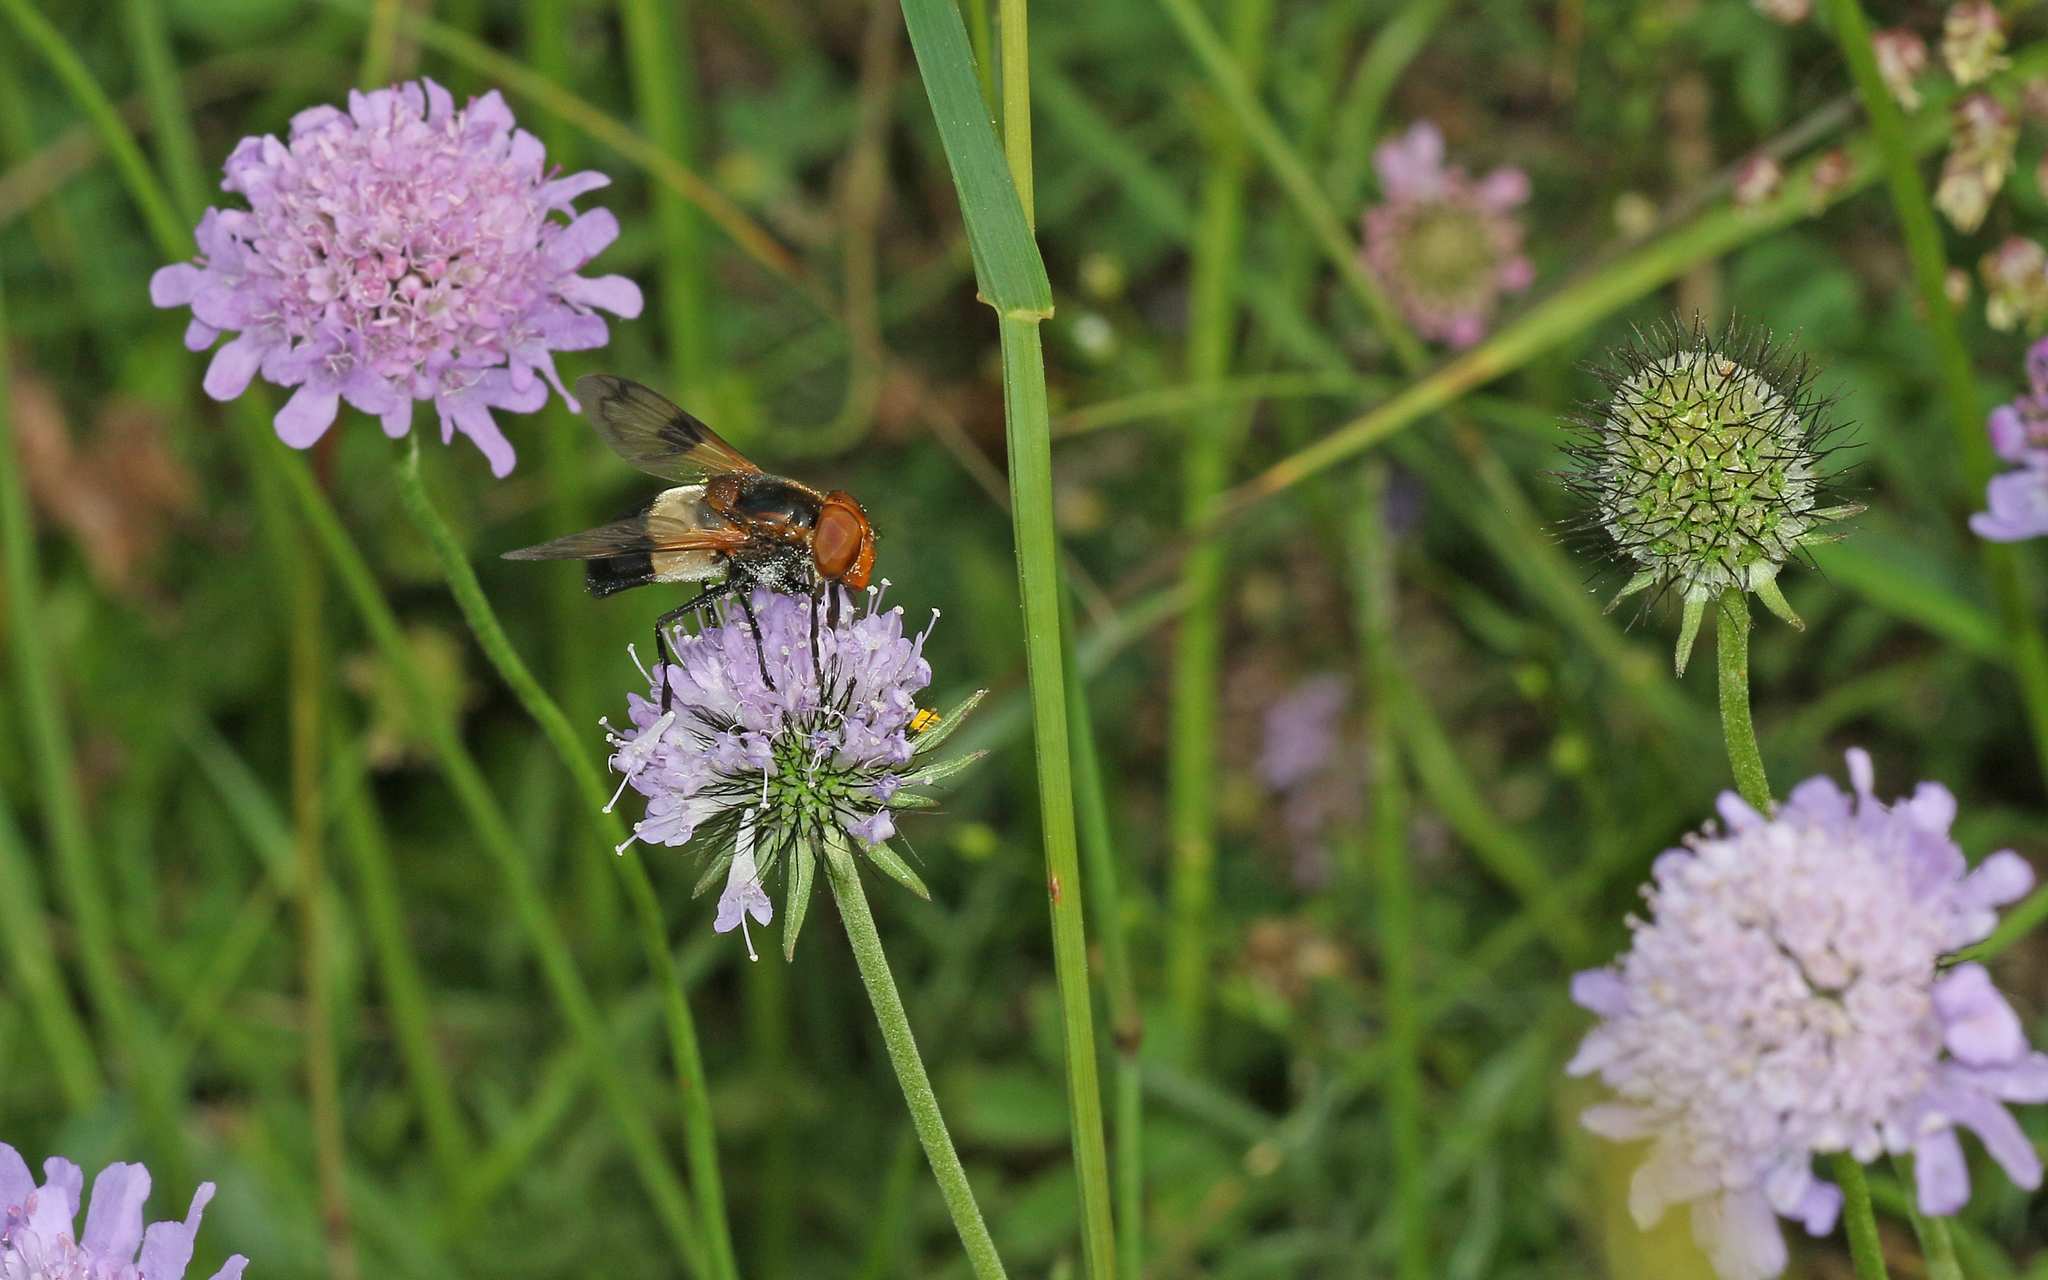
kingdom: Animalia
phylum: Arthropoda
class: Insecta
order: Diptera
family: Syrphidae
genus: Volucella
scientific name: Volucella pellucens
